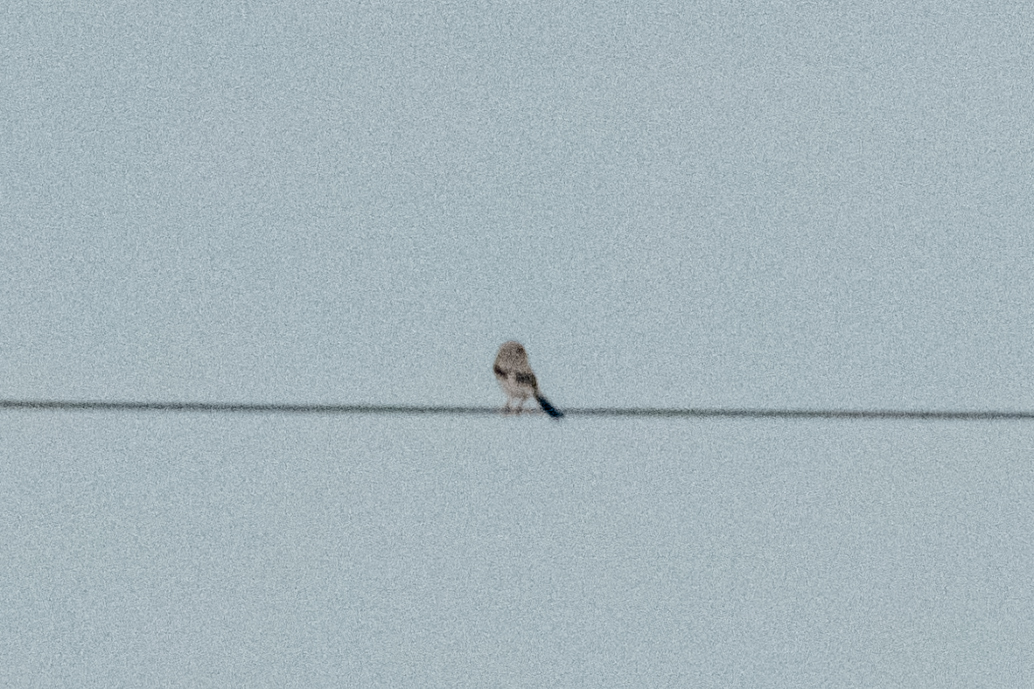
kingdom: Animalia
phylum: Chordata
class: Aves
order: Passeriformes
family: Laniidae
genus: Lanius
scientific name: Lanius excubitor
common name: Great grey shrike
